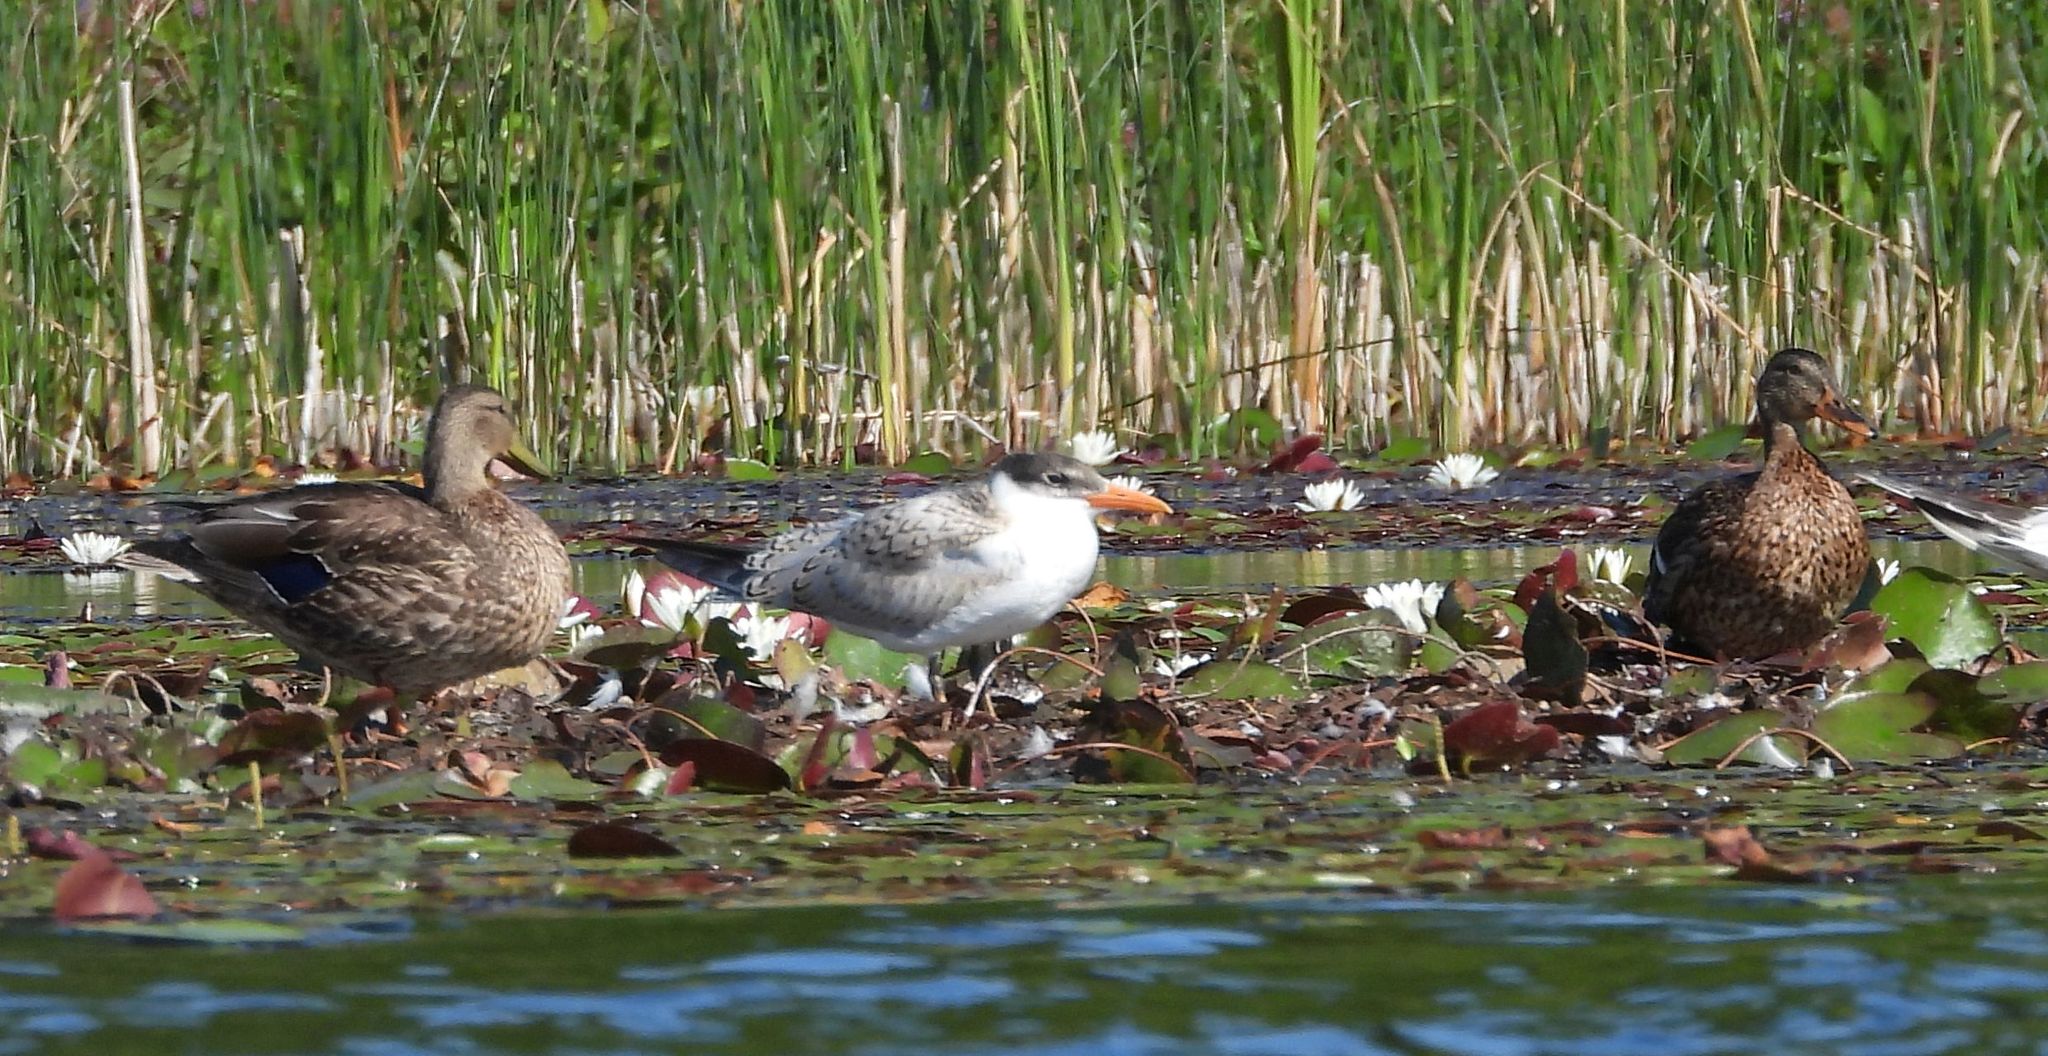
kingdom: Animalia
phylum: Chordata
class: Aves
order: Anseriformes
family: Anatidae
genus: Anas
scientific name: Anas platyrhynchos
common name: Mallard
